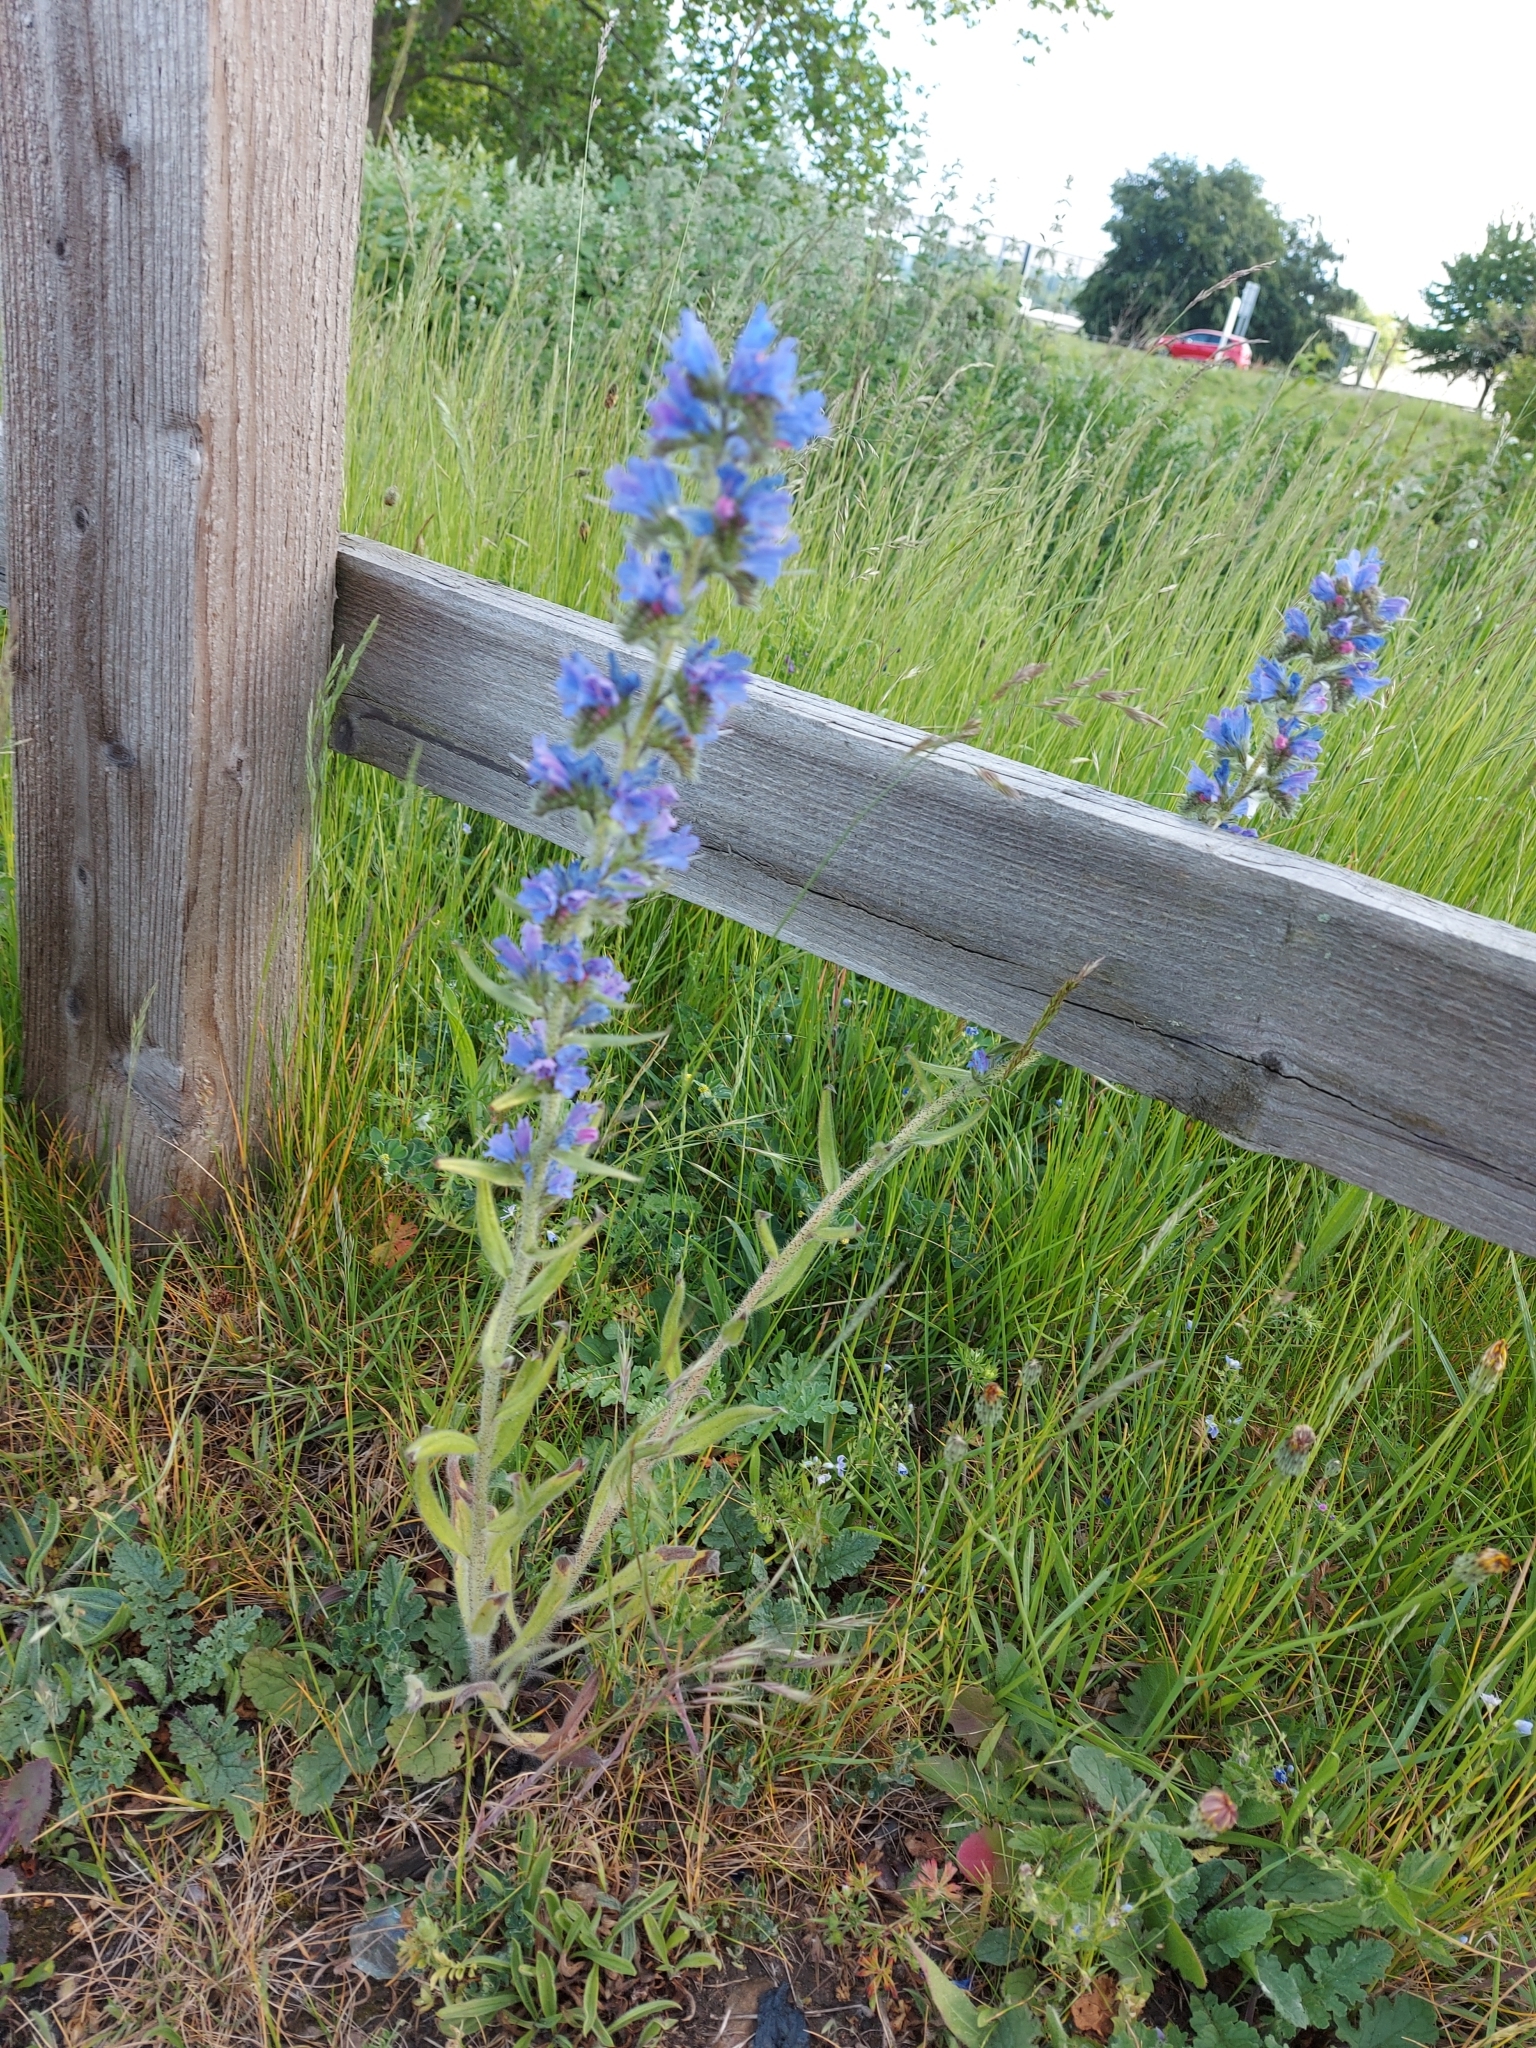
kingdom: Plantae
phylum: Tracheophyta
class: Magnoliopsida
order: Boraginales
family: Boraginaceae
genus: Echium
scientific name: Echium vulgare
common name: Common viper's bugloss
